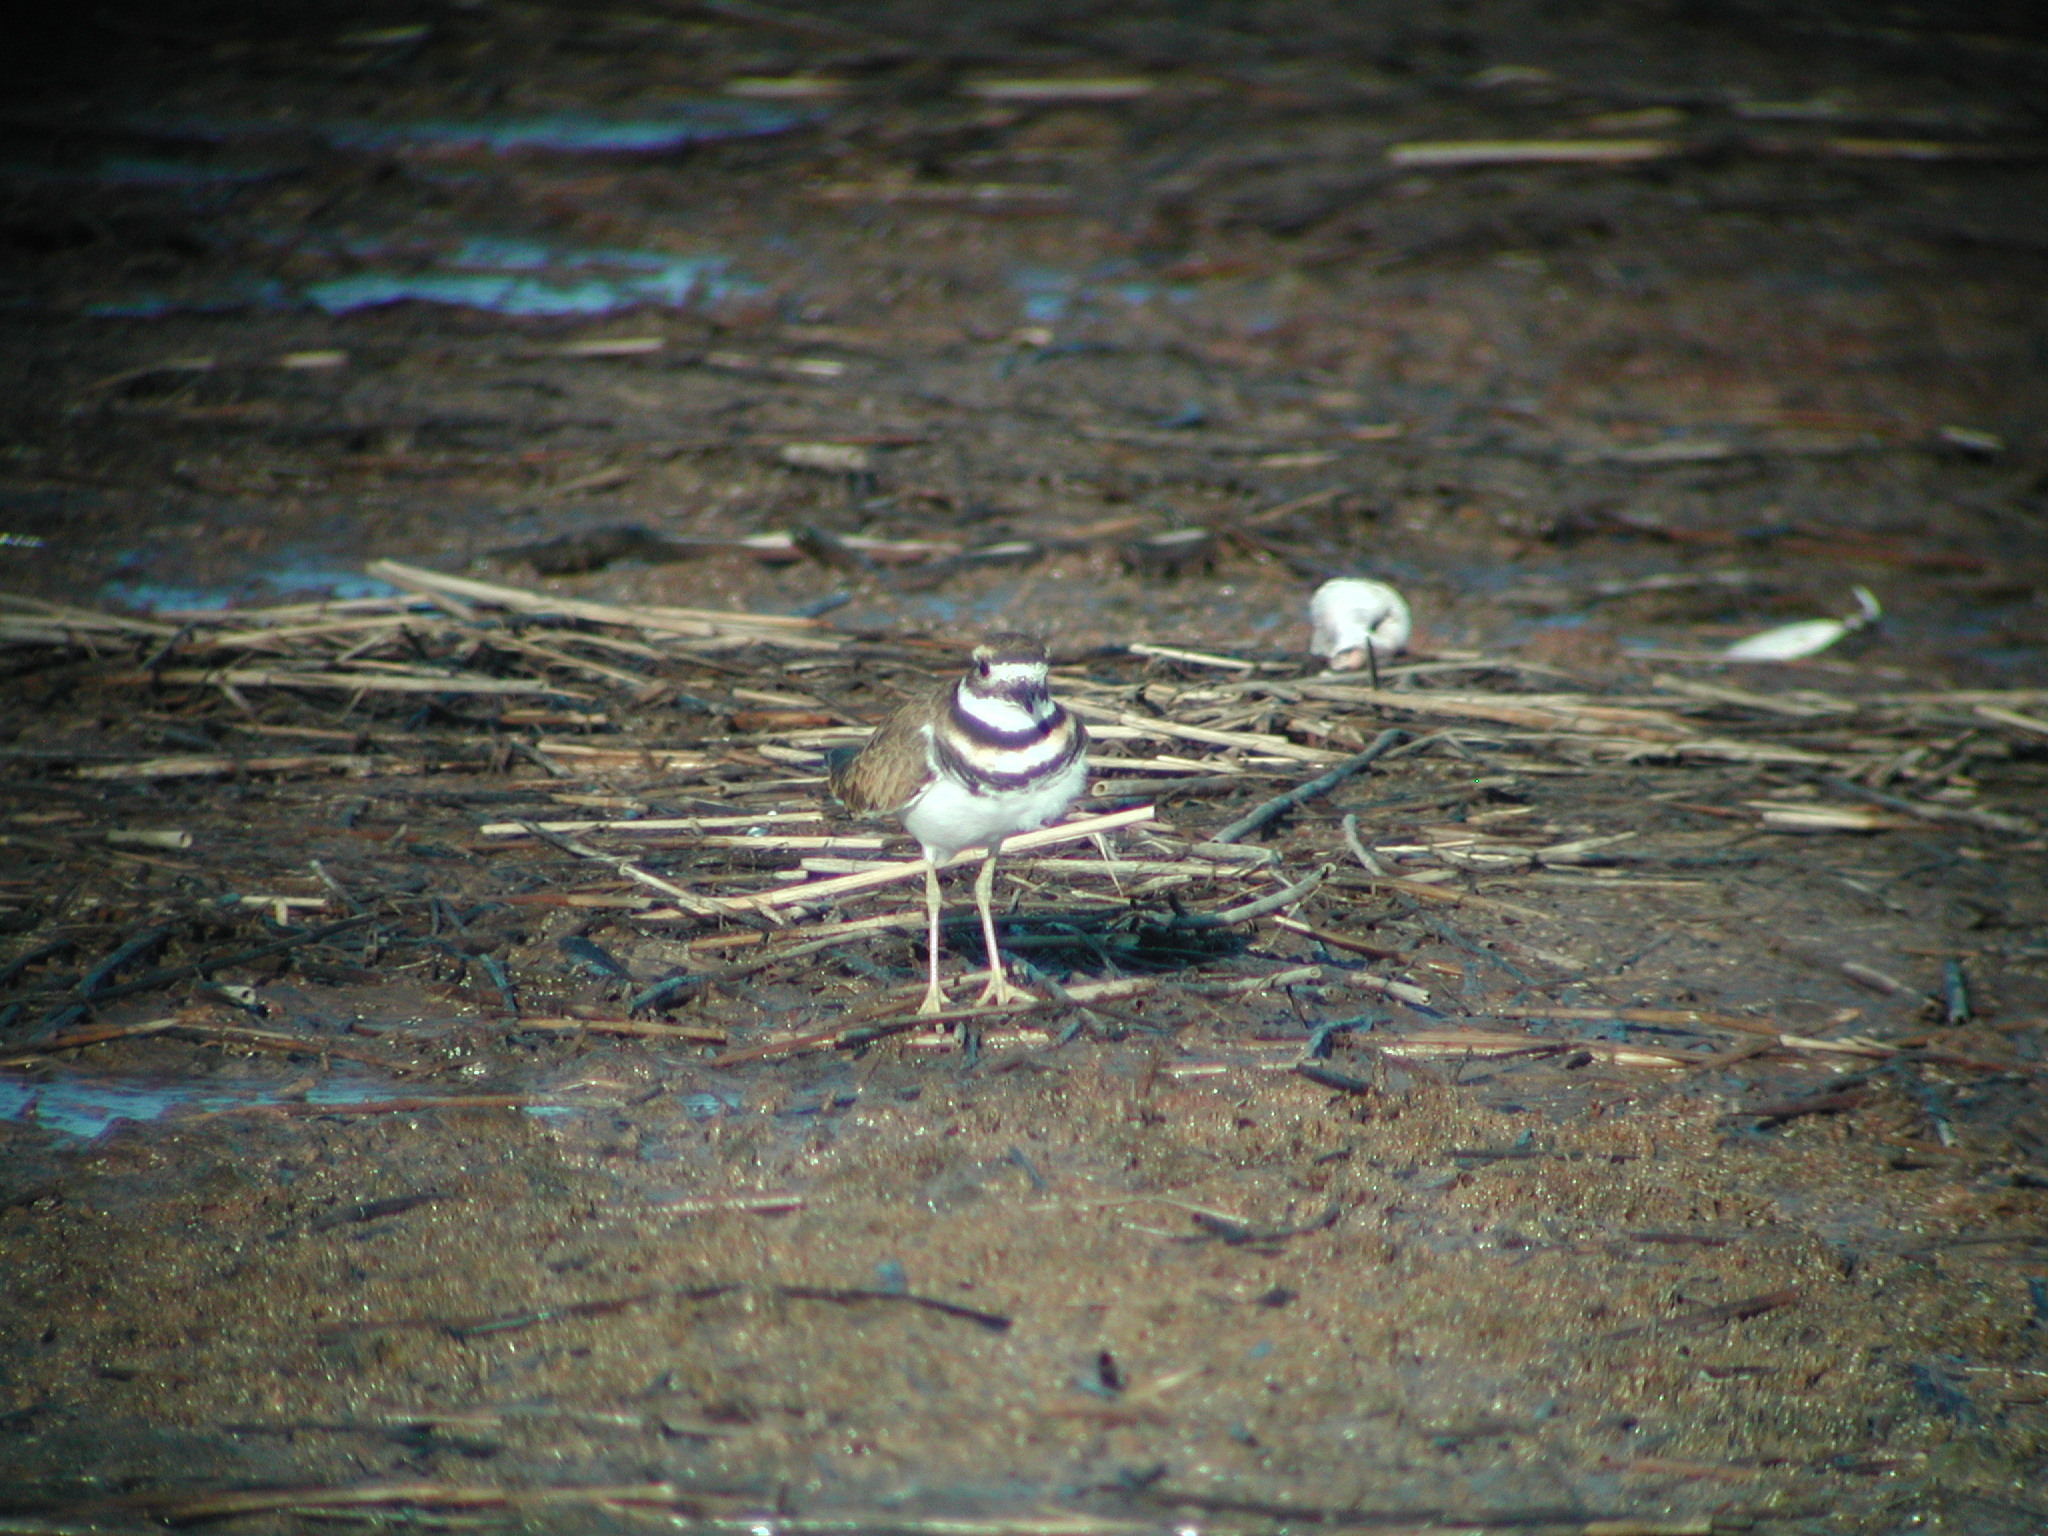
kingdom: Animalia
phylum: Chordata
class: Aves
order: Charadriiformes
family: Charadriidae
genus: Charadrius
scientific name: Charadrius vociferus
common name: Killdeer
